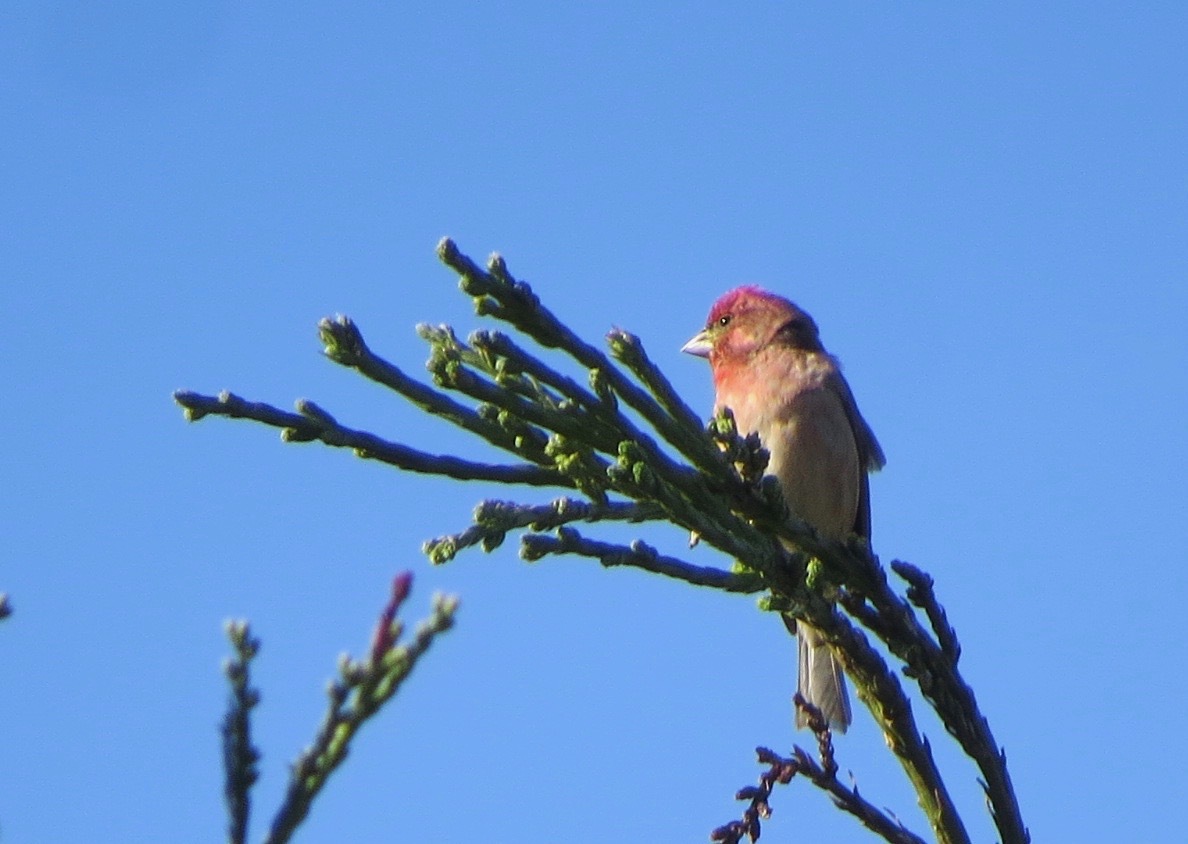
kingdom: Animalia
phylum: Chordata
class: Aves
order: Passeriformes
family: Fringillidae
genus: Haemorhous
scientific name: Haemorhous purpureus
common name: Purple finch
